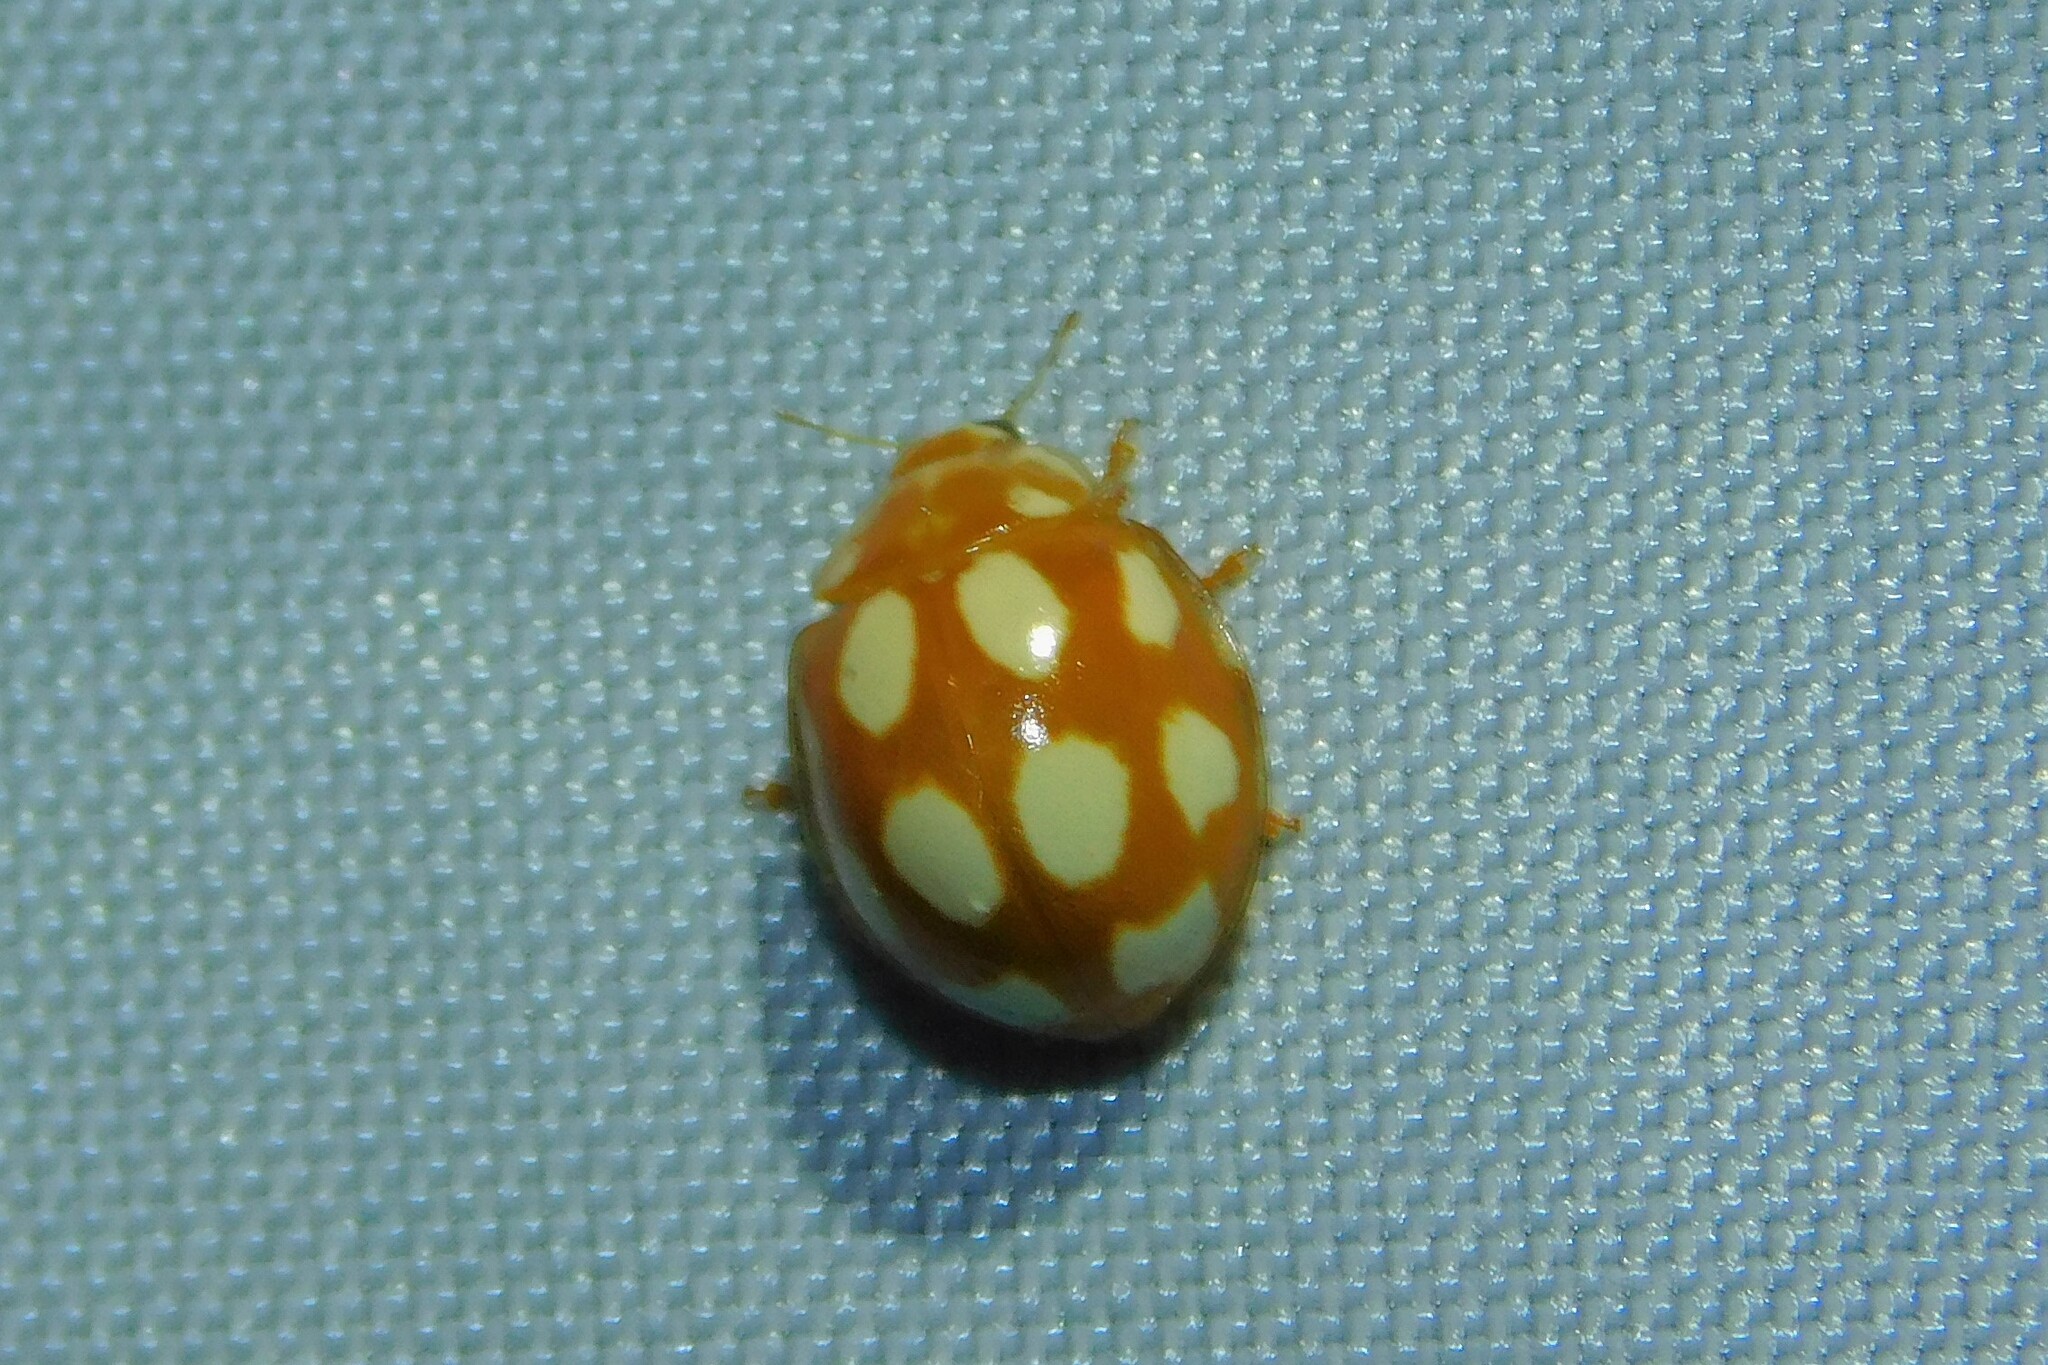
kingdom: Animalia
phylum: Arthropoda
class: Insecta
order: Coleoptera
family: Coccinellidae
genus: Calvia
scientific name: Calvia decemguttata
